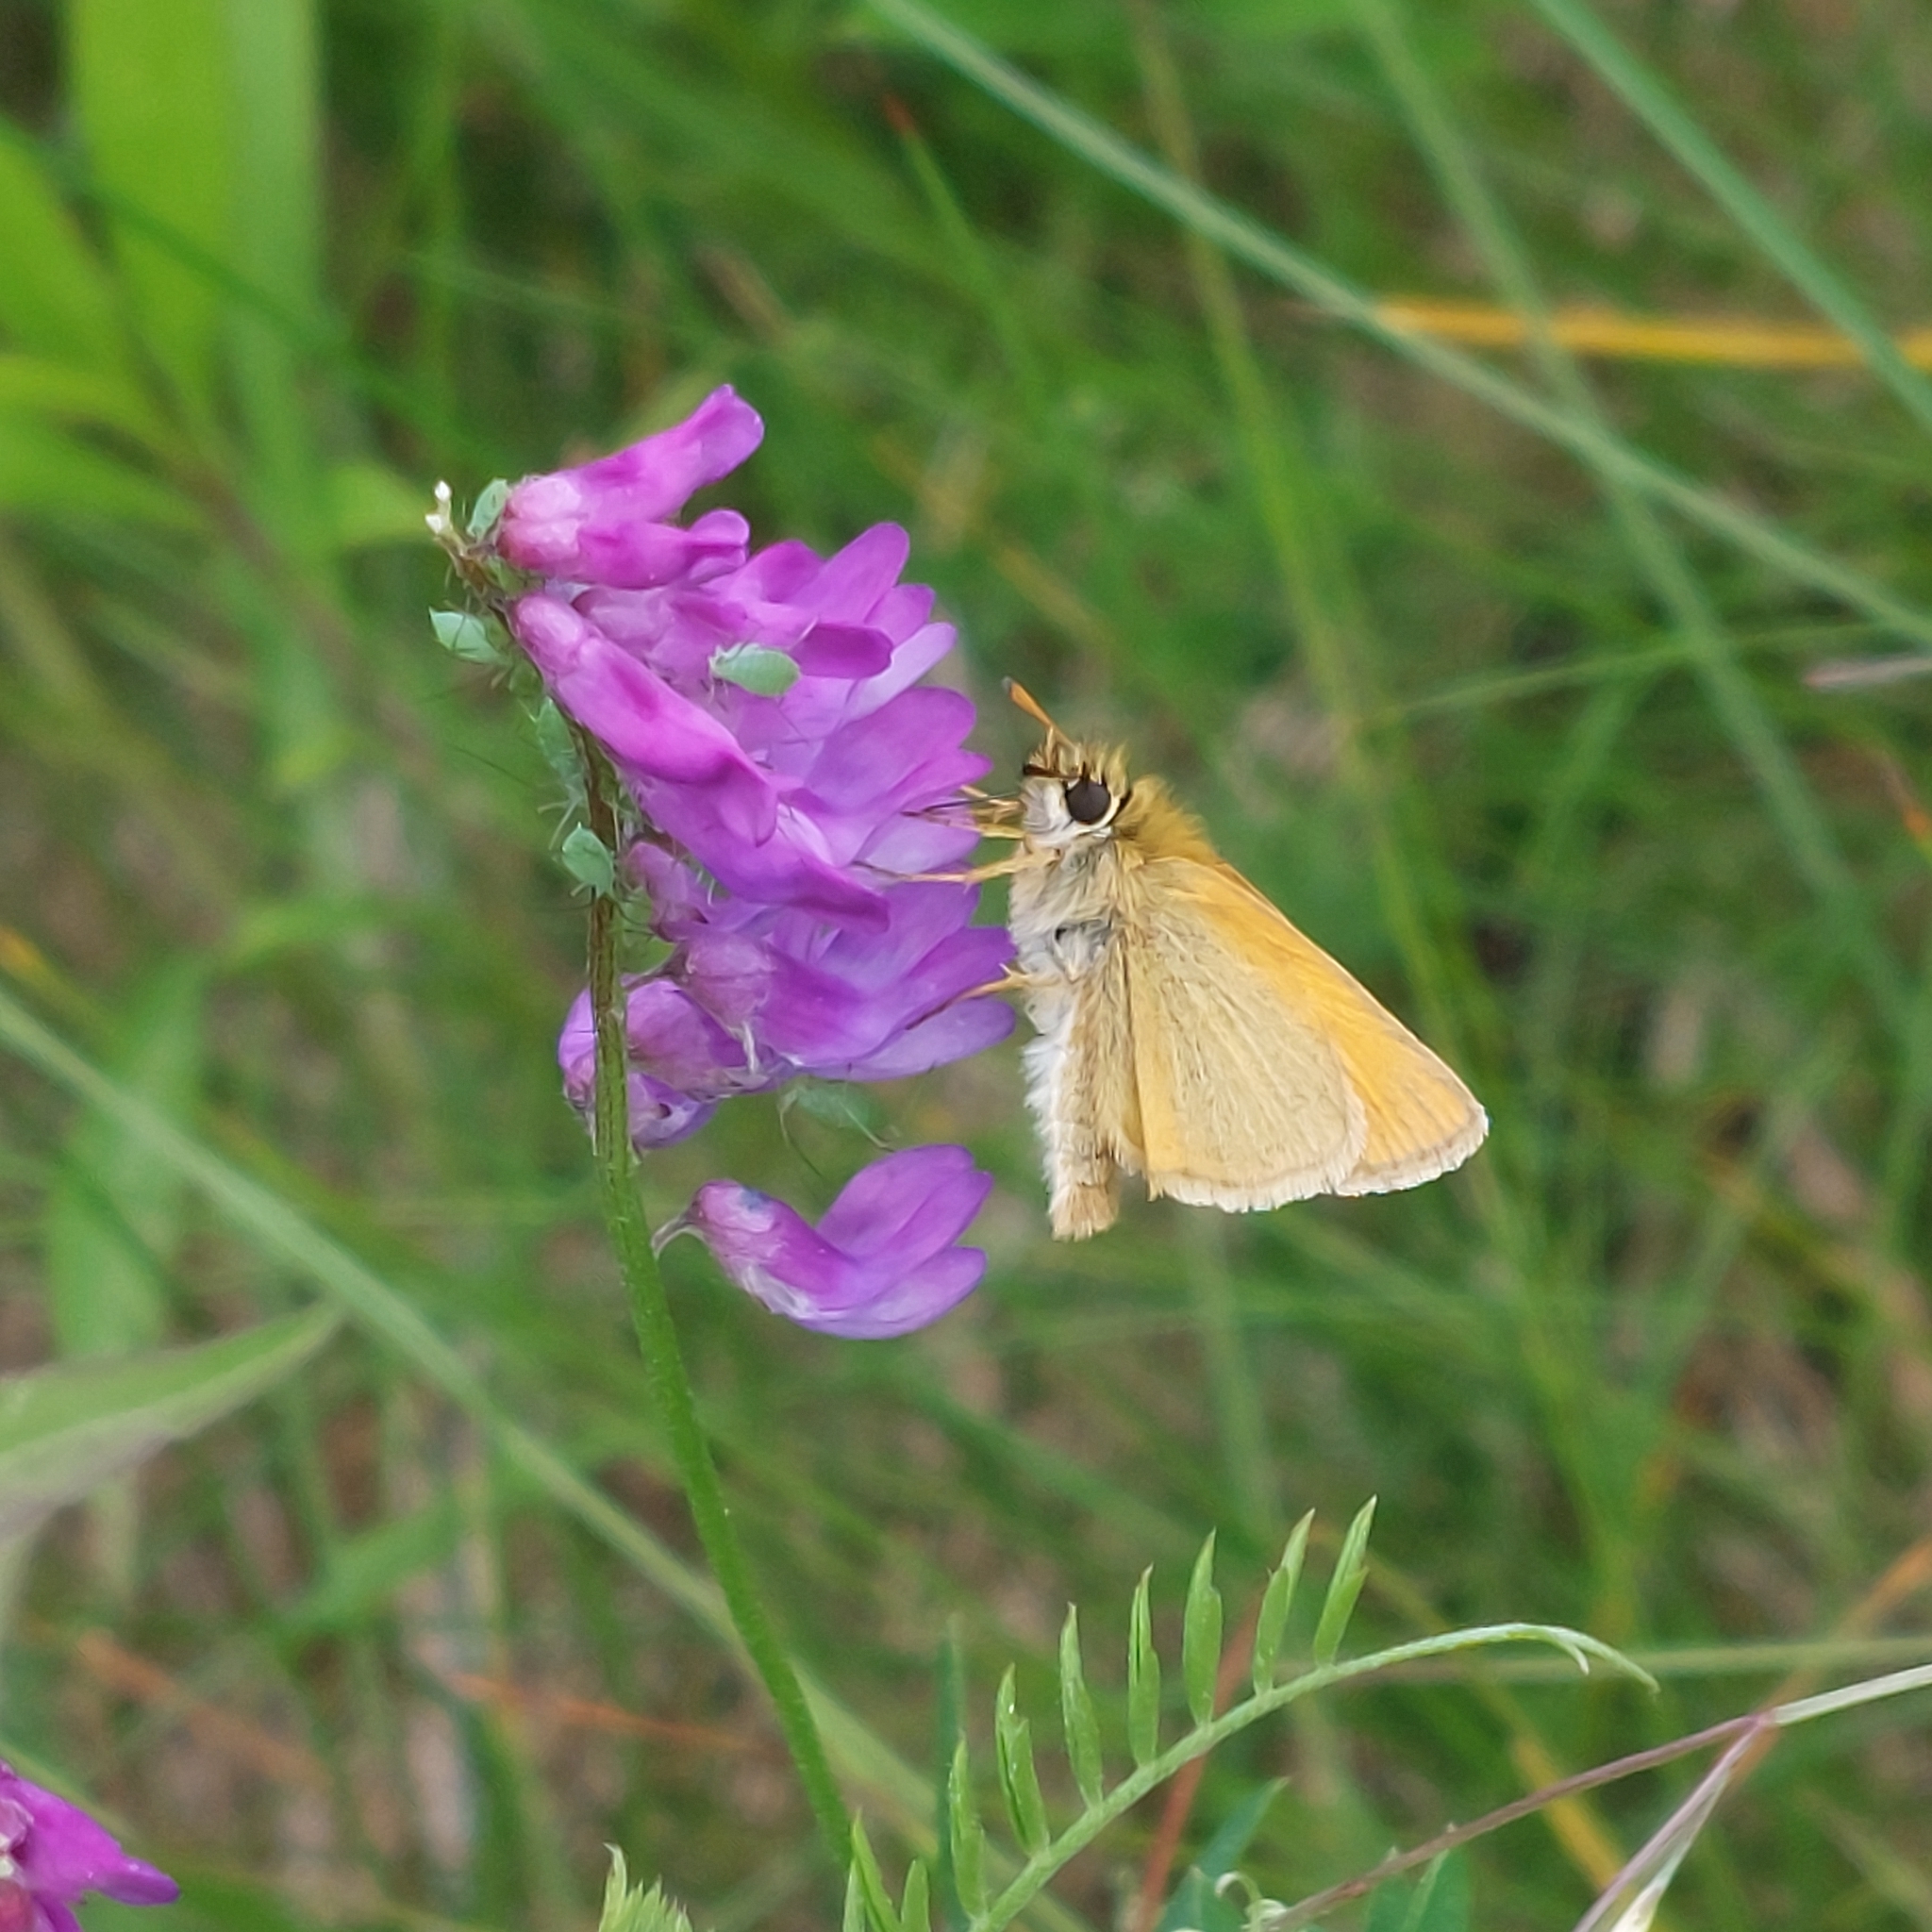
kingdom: Animalia
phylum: Arthropoda
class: Insecta
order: Lepidoptera
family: Hesperiidae
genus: Thymelicus
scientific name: Thymelicus lineola
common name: Essex skipper
